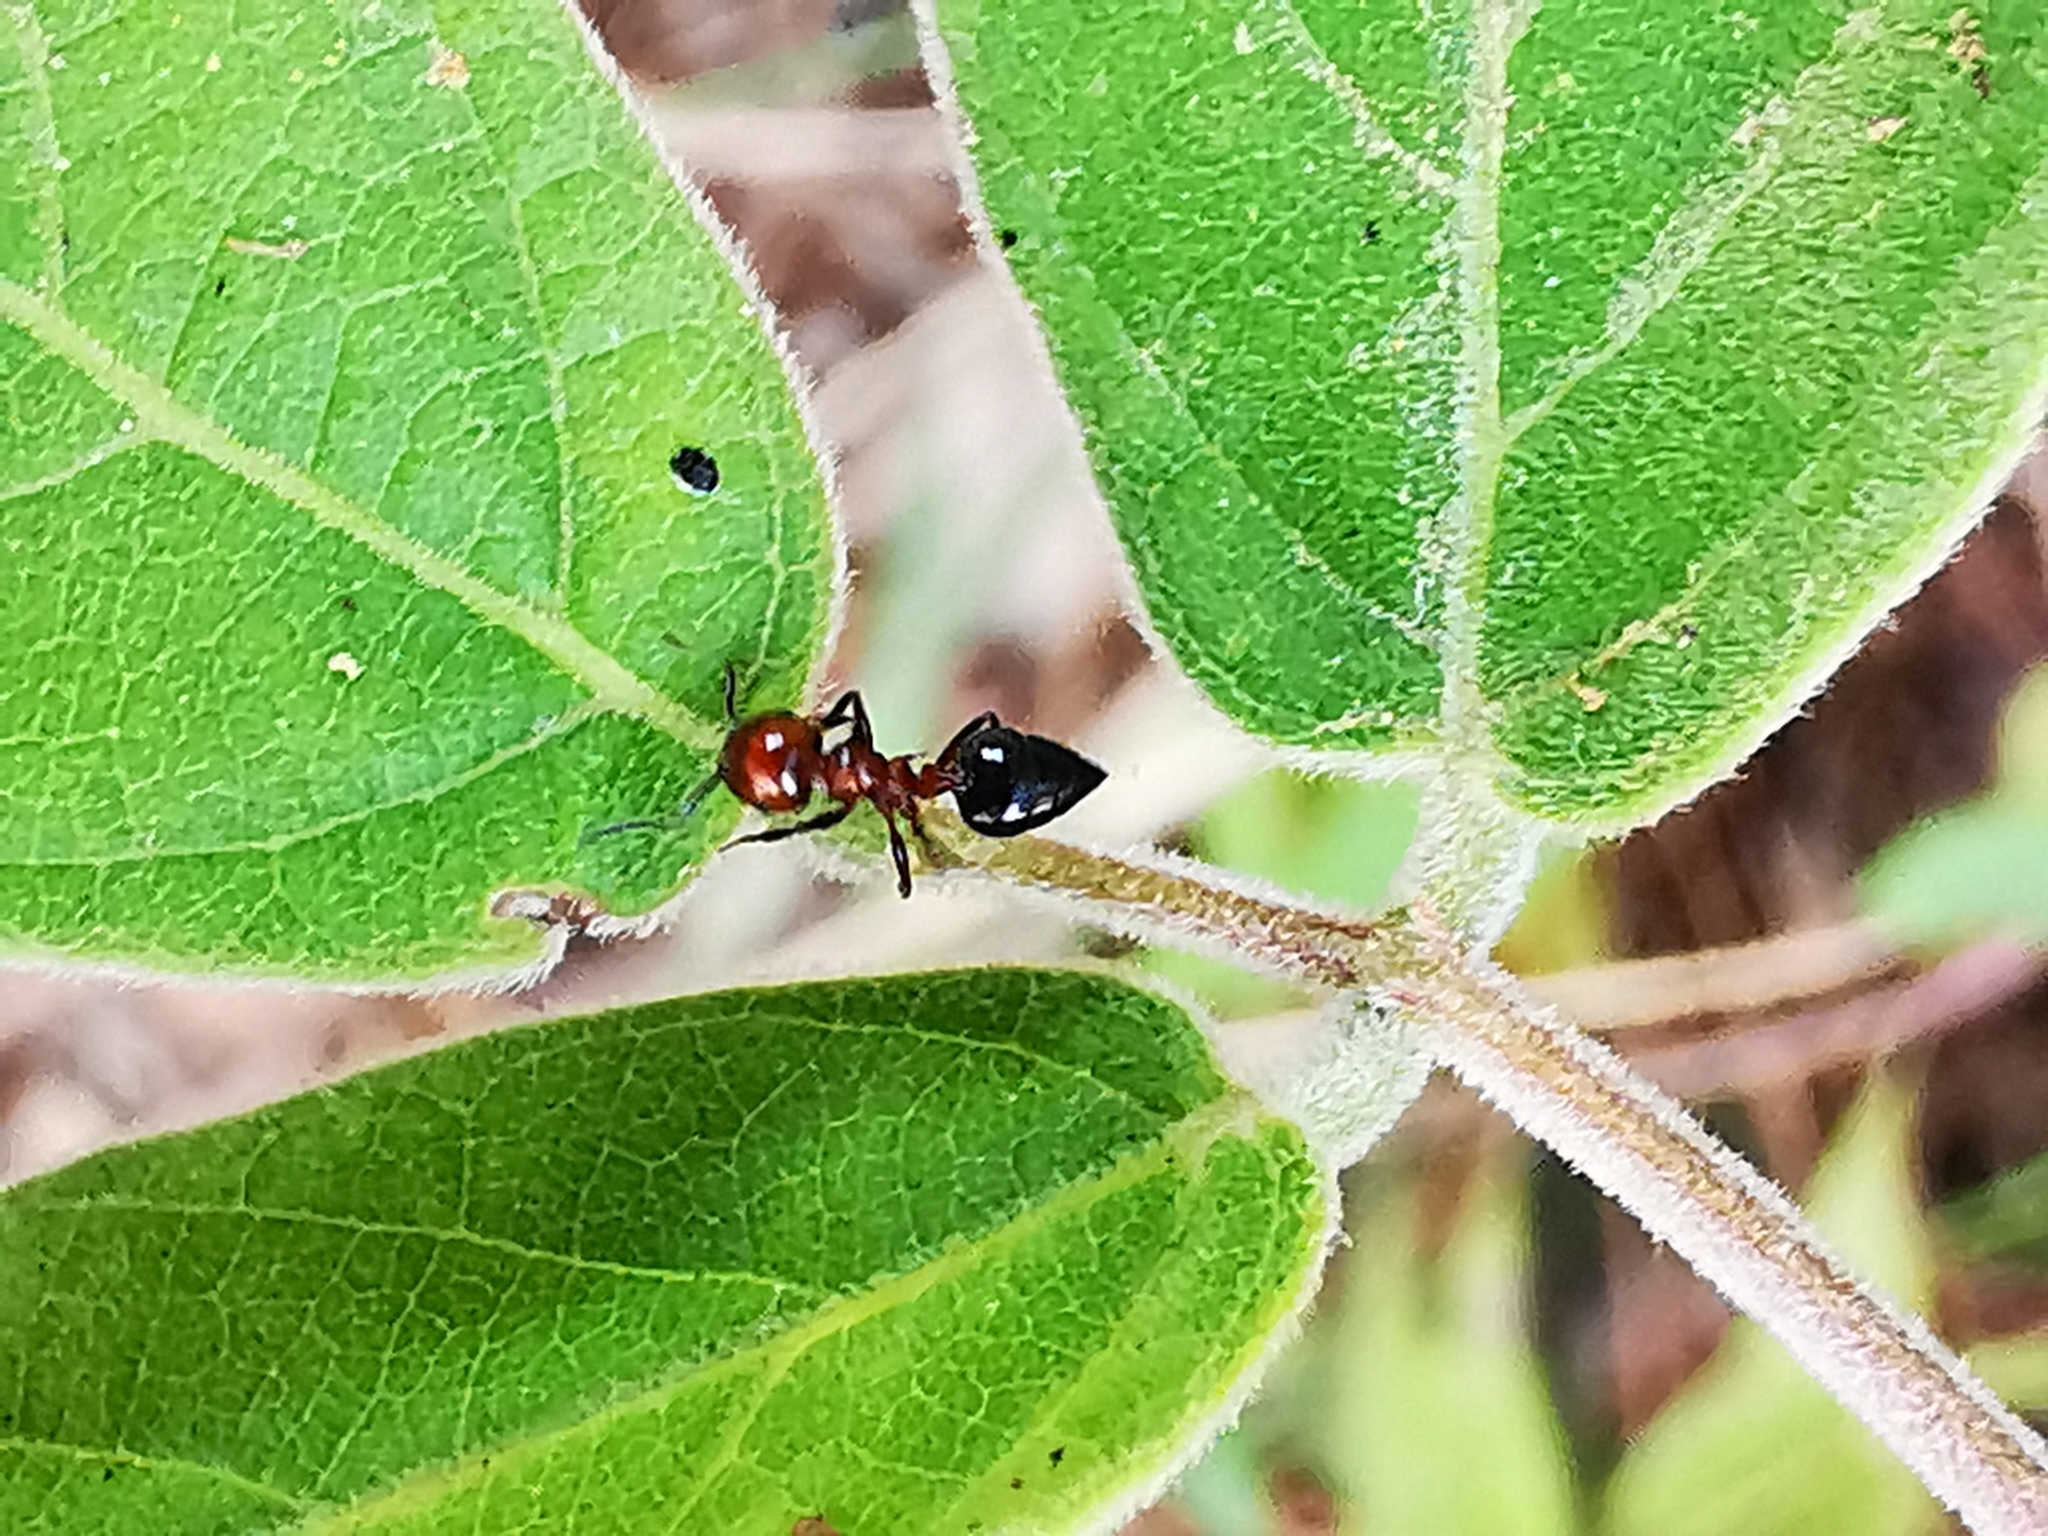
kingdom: Animalia
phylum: Arthropoda
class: Insecta
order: Hymenoptera
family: Formicidae
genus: Crematogaster
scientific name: Crematogaster laeviuscula
